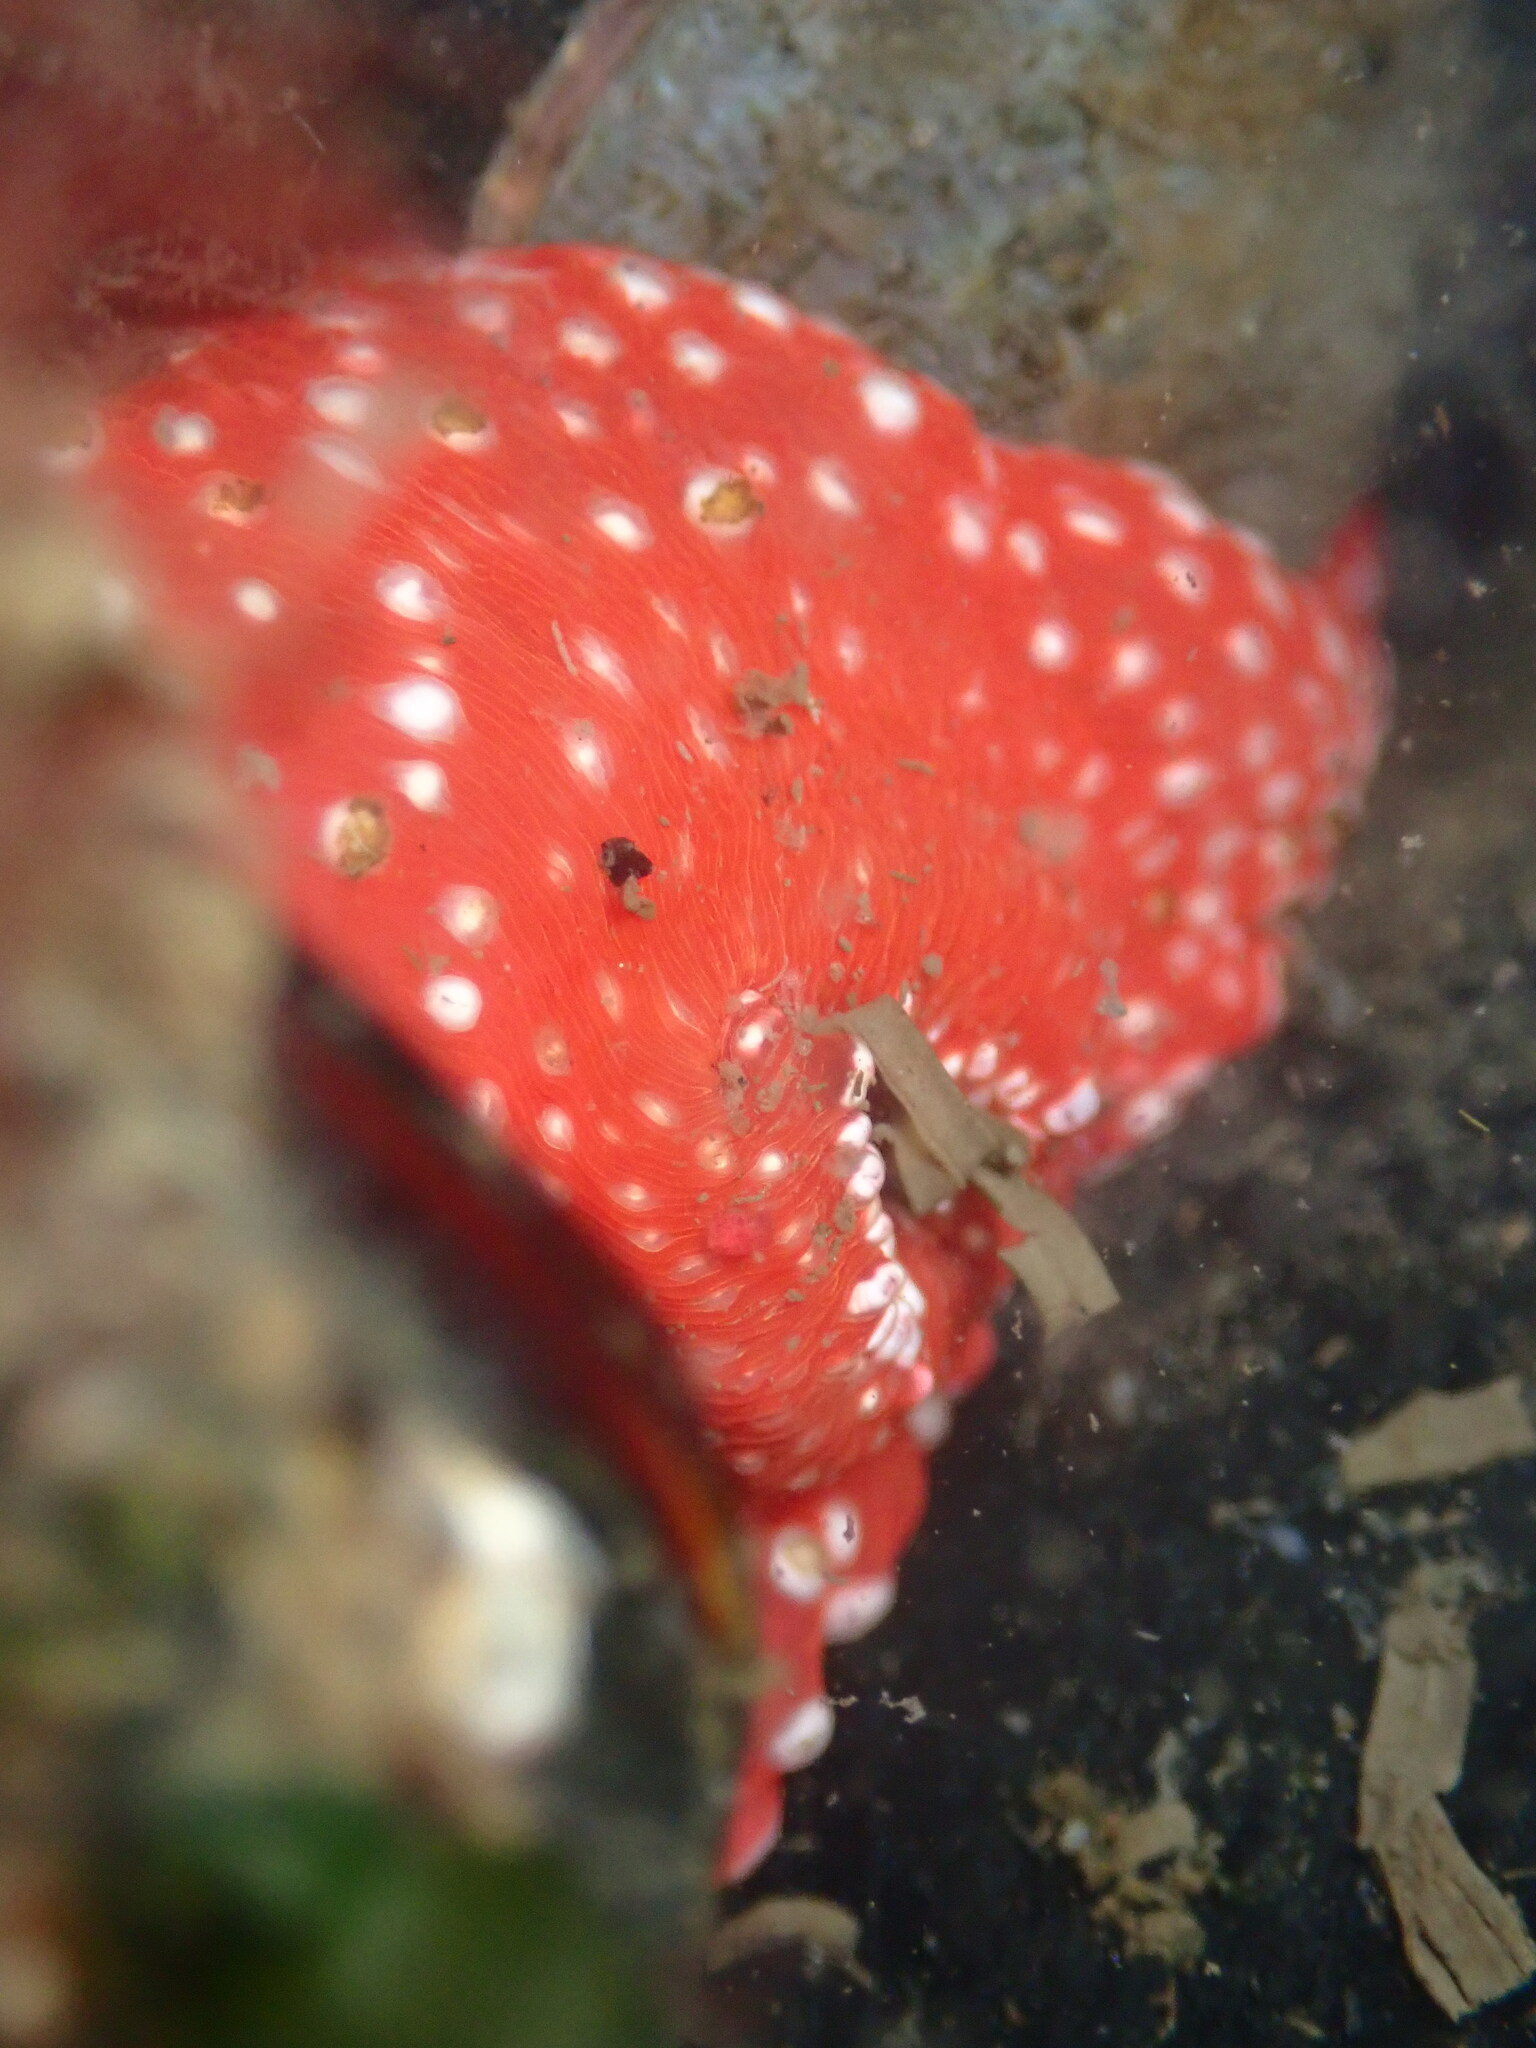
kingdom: Animalia
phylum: Cnidaria
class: Anthozoa
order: Actiniaria
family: Actiniidae
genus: Cribrinopsis
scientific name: Cribrinopsis albopunctata
